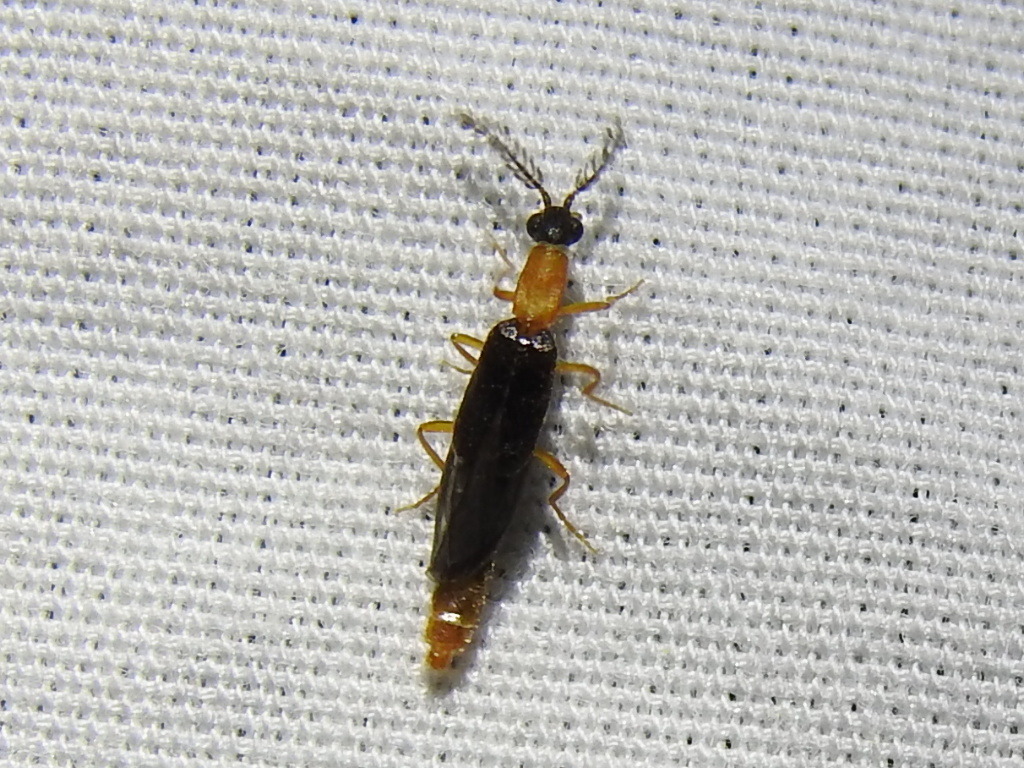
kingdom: Animalia
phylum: Arthropoda
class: Insecta
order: Coleoptera
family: Phengodidae
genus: Cenophengus
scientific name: Cenophengus longicollis
